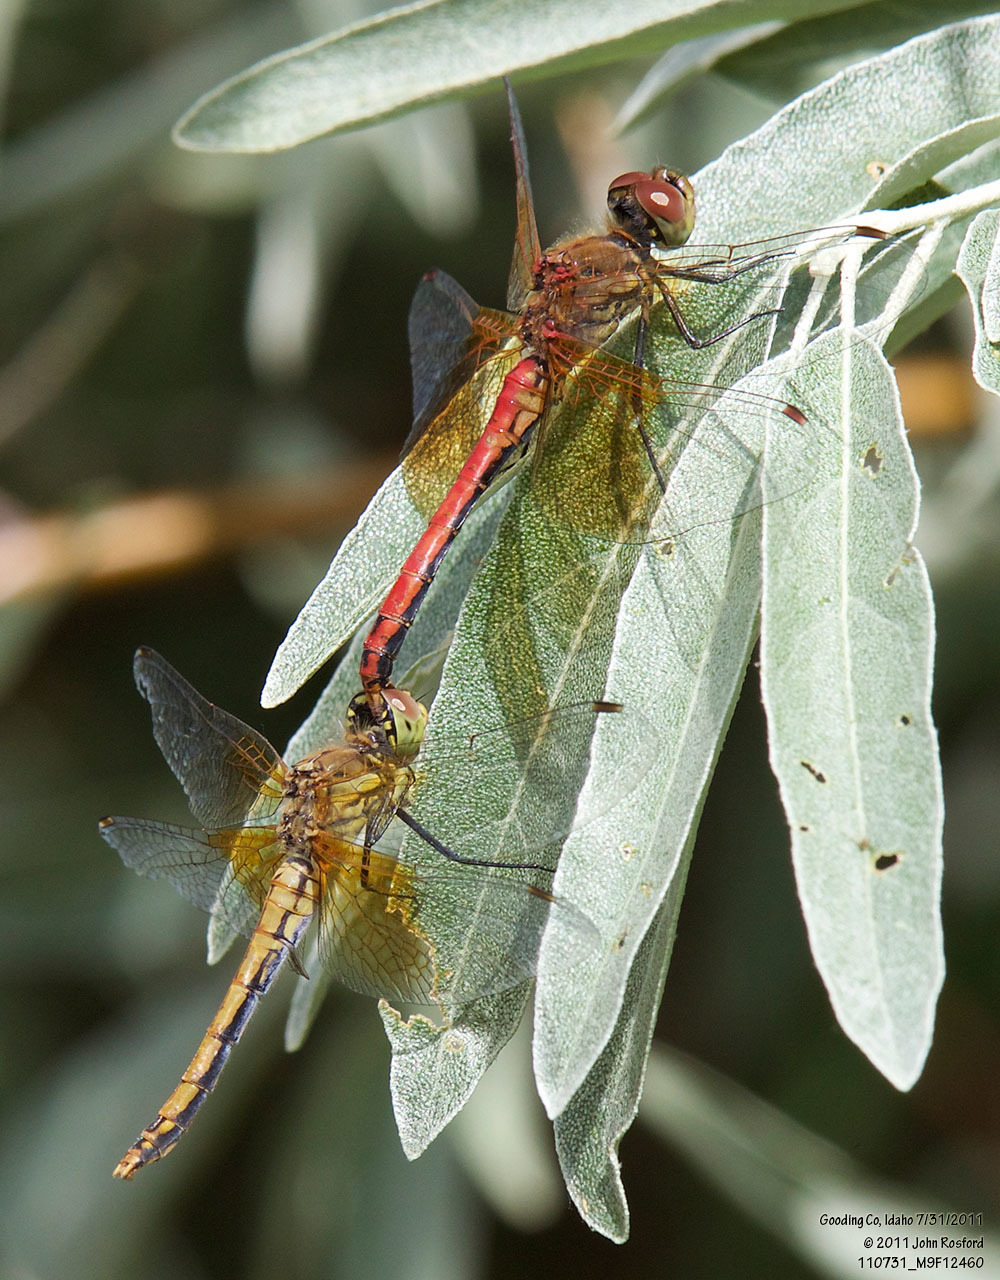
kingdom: Animalia
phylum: Arthropoda
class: Insecta
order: Odonata
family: Libellulidae
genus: Sympetrum
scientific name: Sympetrum semicinctum
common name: Band-winged meadowhawk
